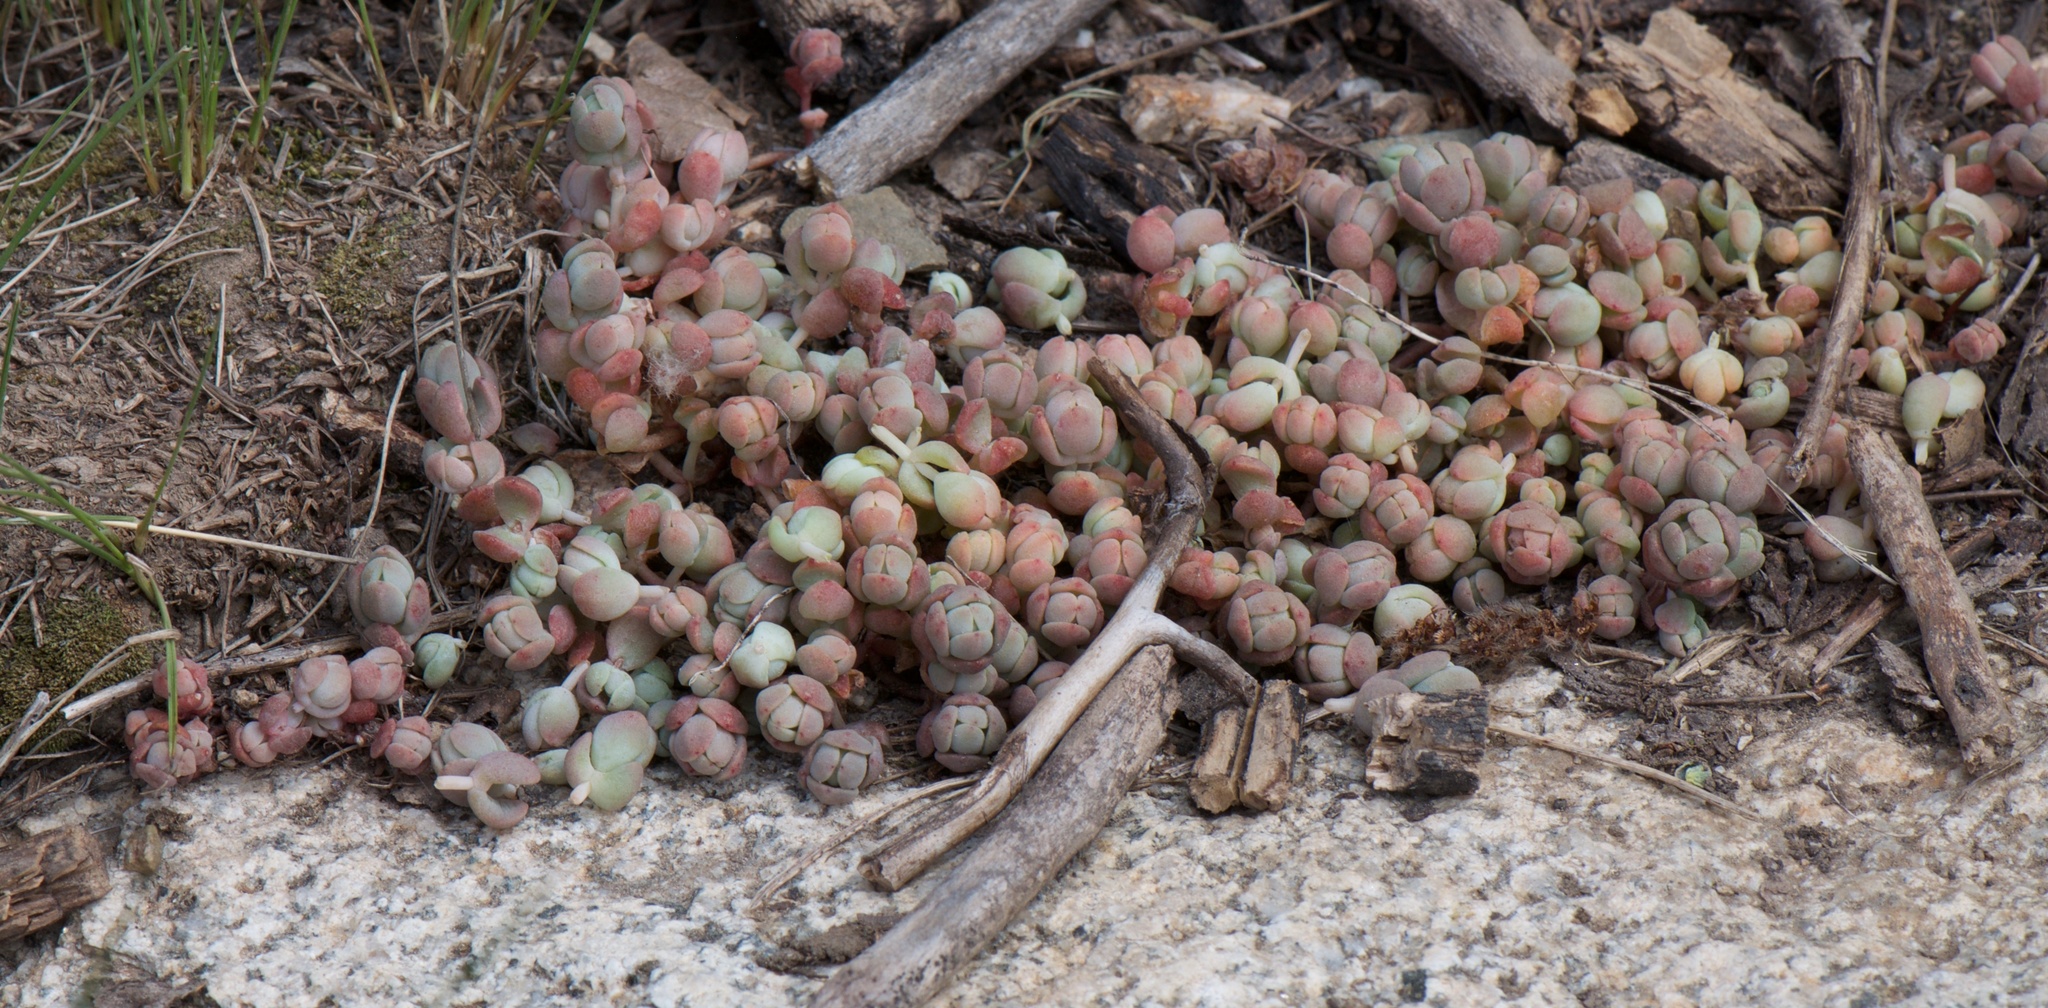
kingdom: Plantae
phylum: Tracheophyta
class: Magnoliopsida
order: Saxifragales
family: Crassulaceae
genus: Sedum
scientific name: Sedum debile
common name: Weak-stem stonecrop
